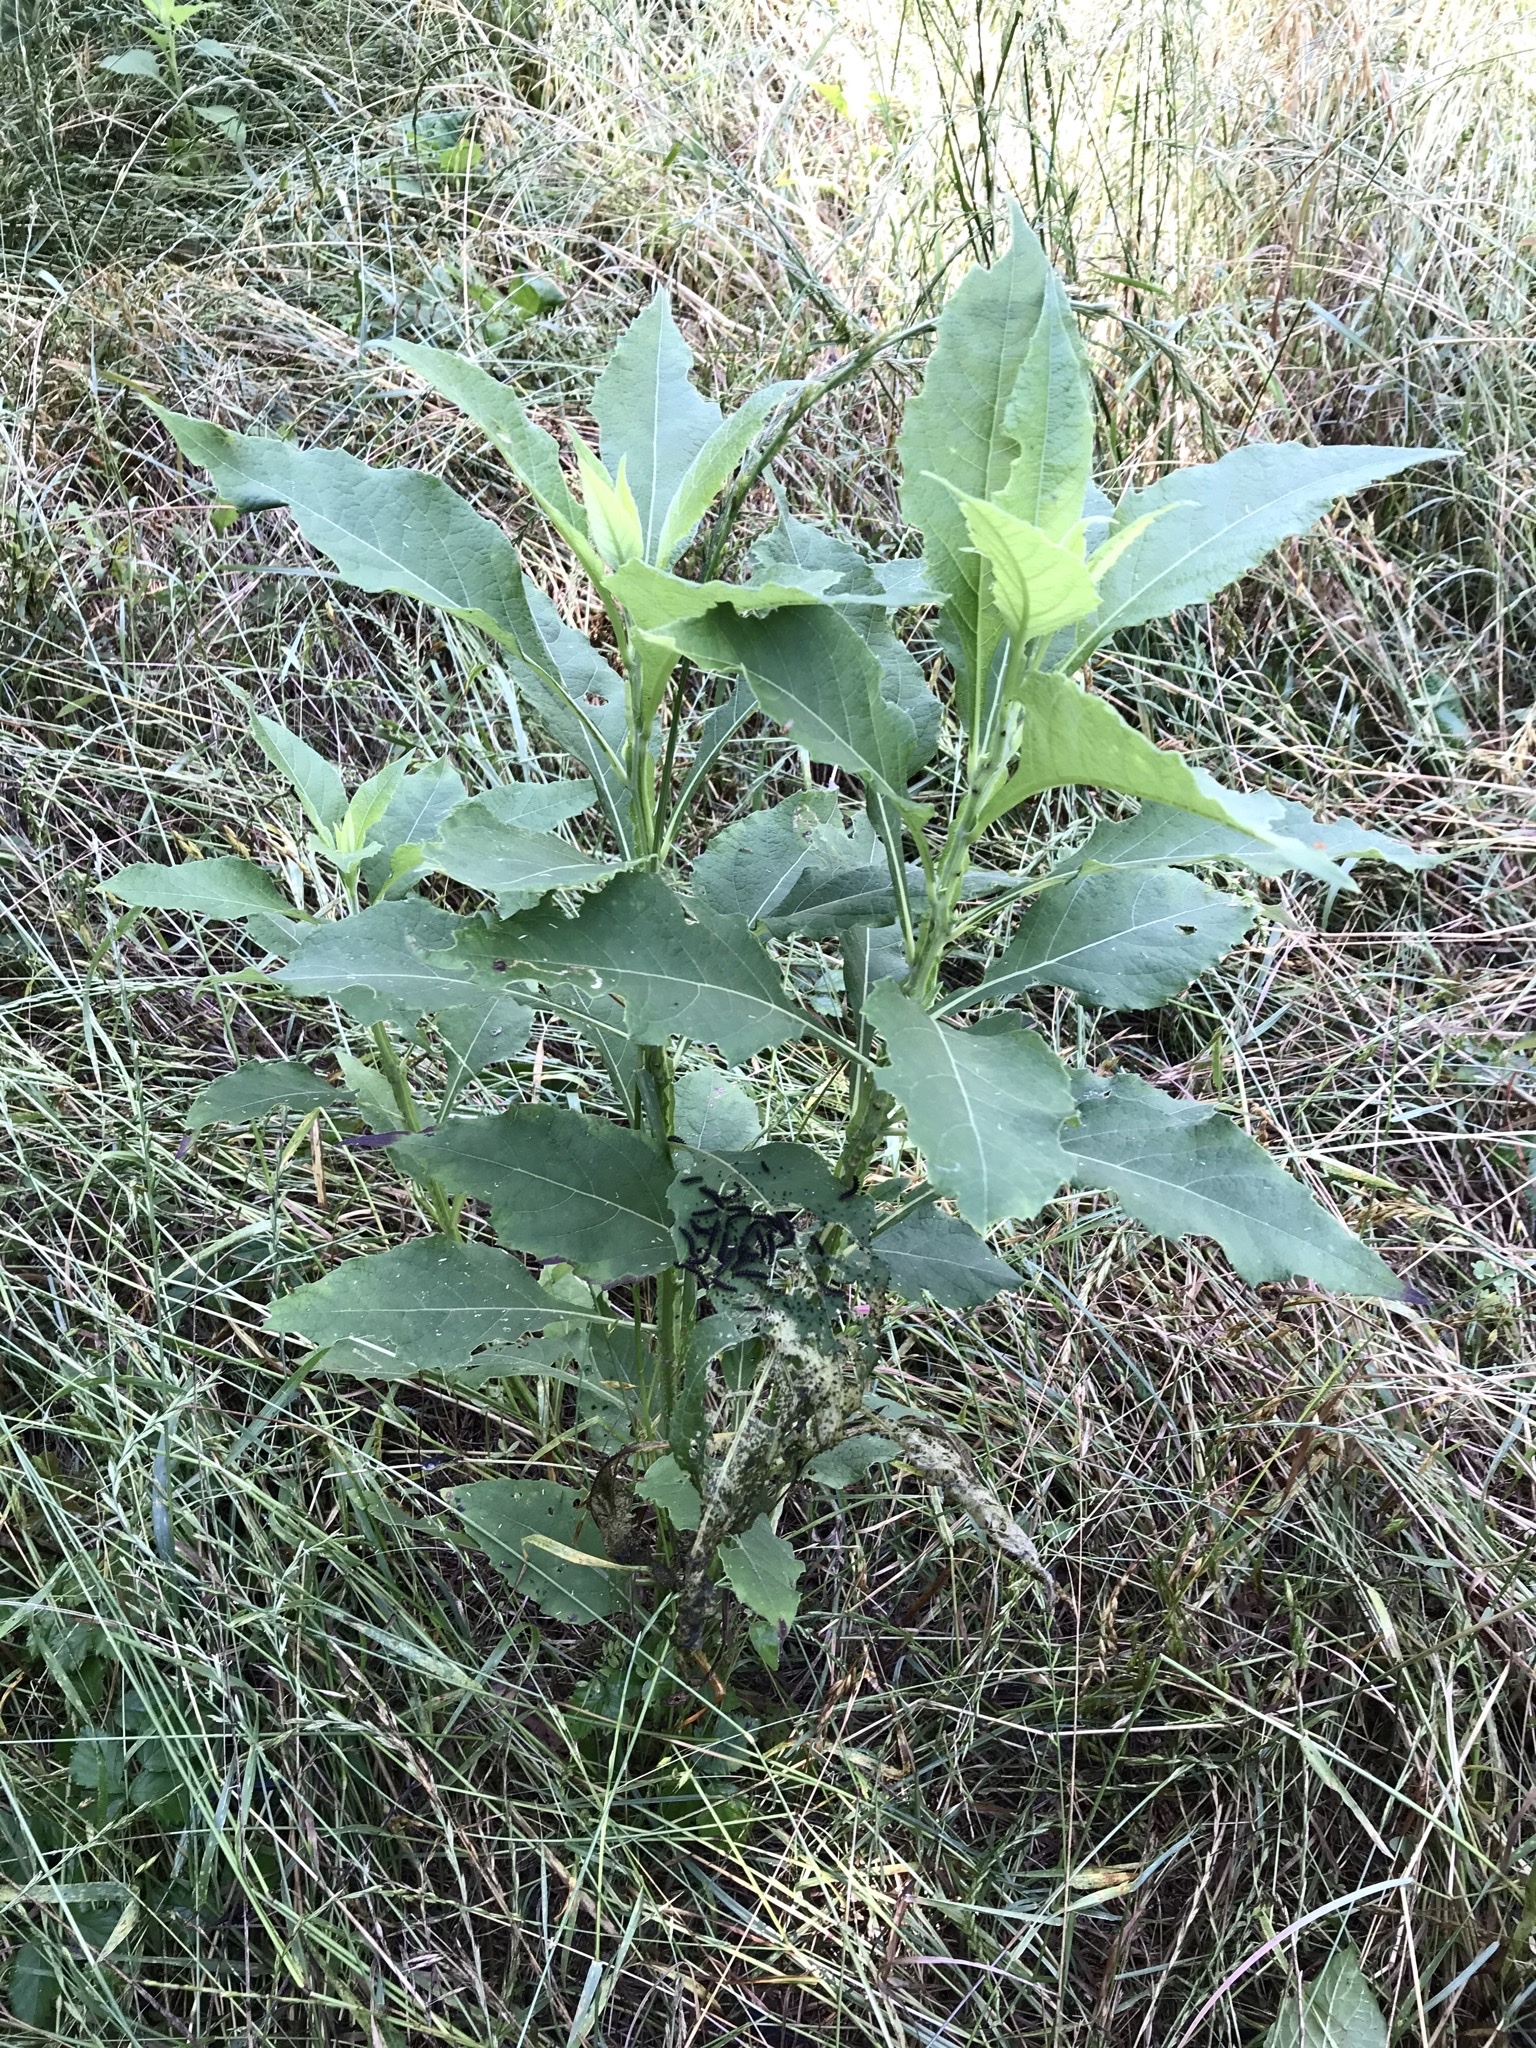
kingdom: Plantae
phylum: Tracheophyta
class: Magnoliopsida
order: Asterales
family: Asteraceae
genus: Verbesina
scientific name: Verbesina virginica
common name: Frostweed
